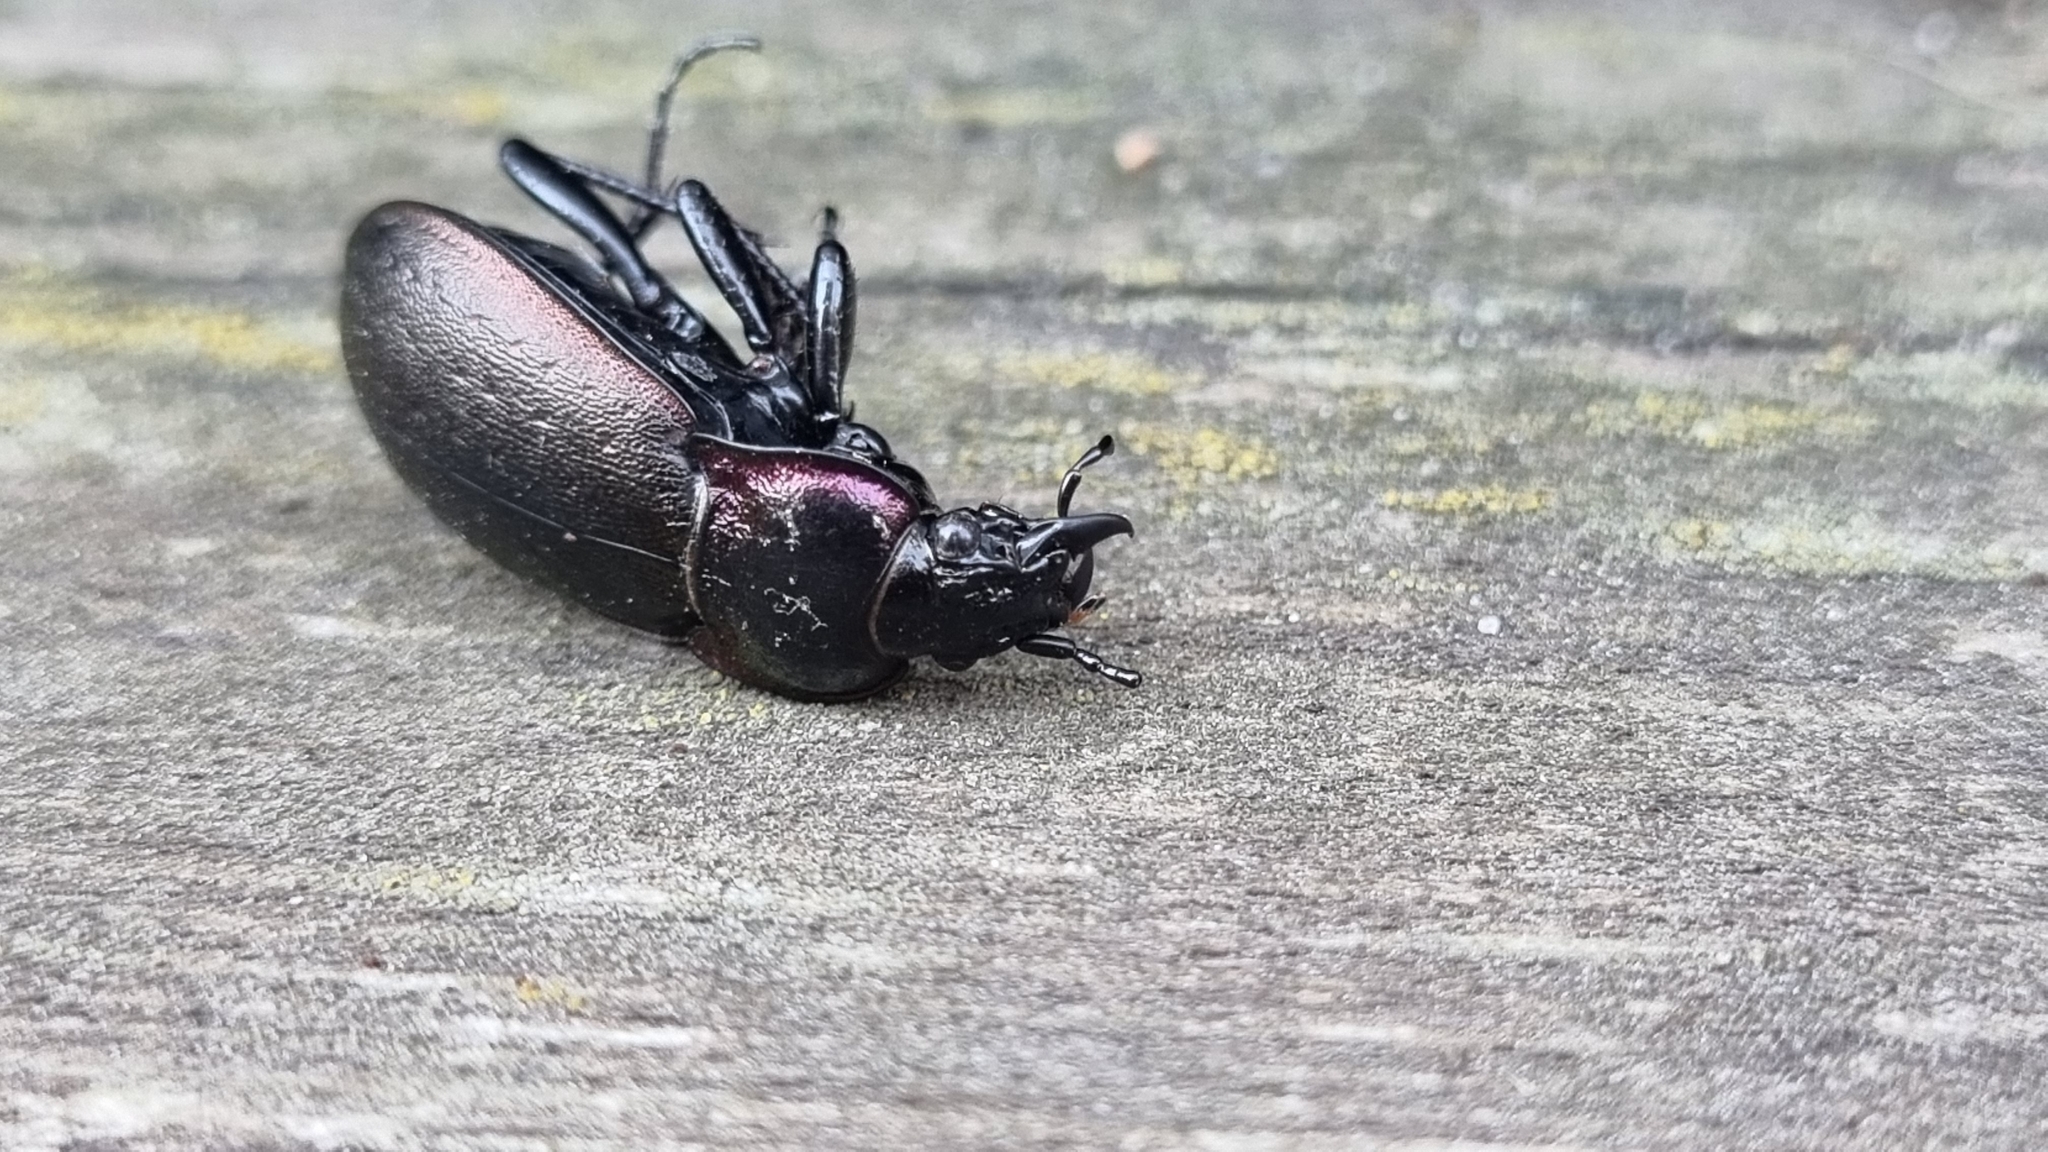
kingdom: Animalia
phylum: Arthropoda
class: Insecta
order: Coleoptera
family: Carabidae
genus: Carabus
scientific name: Carabus nemoralis
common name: European ground beetle
